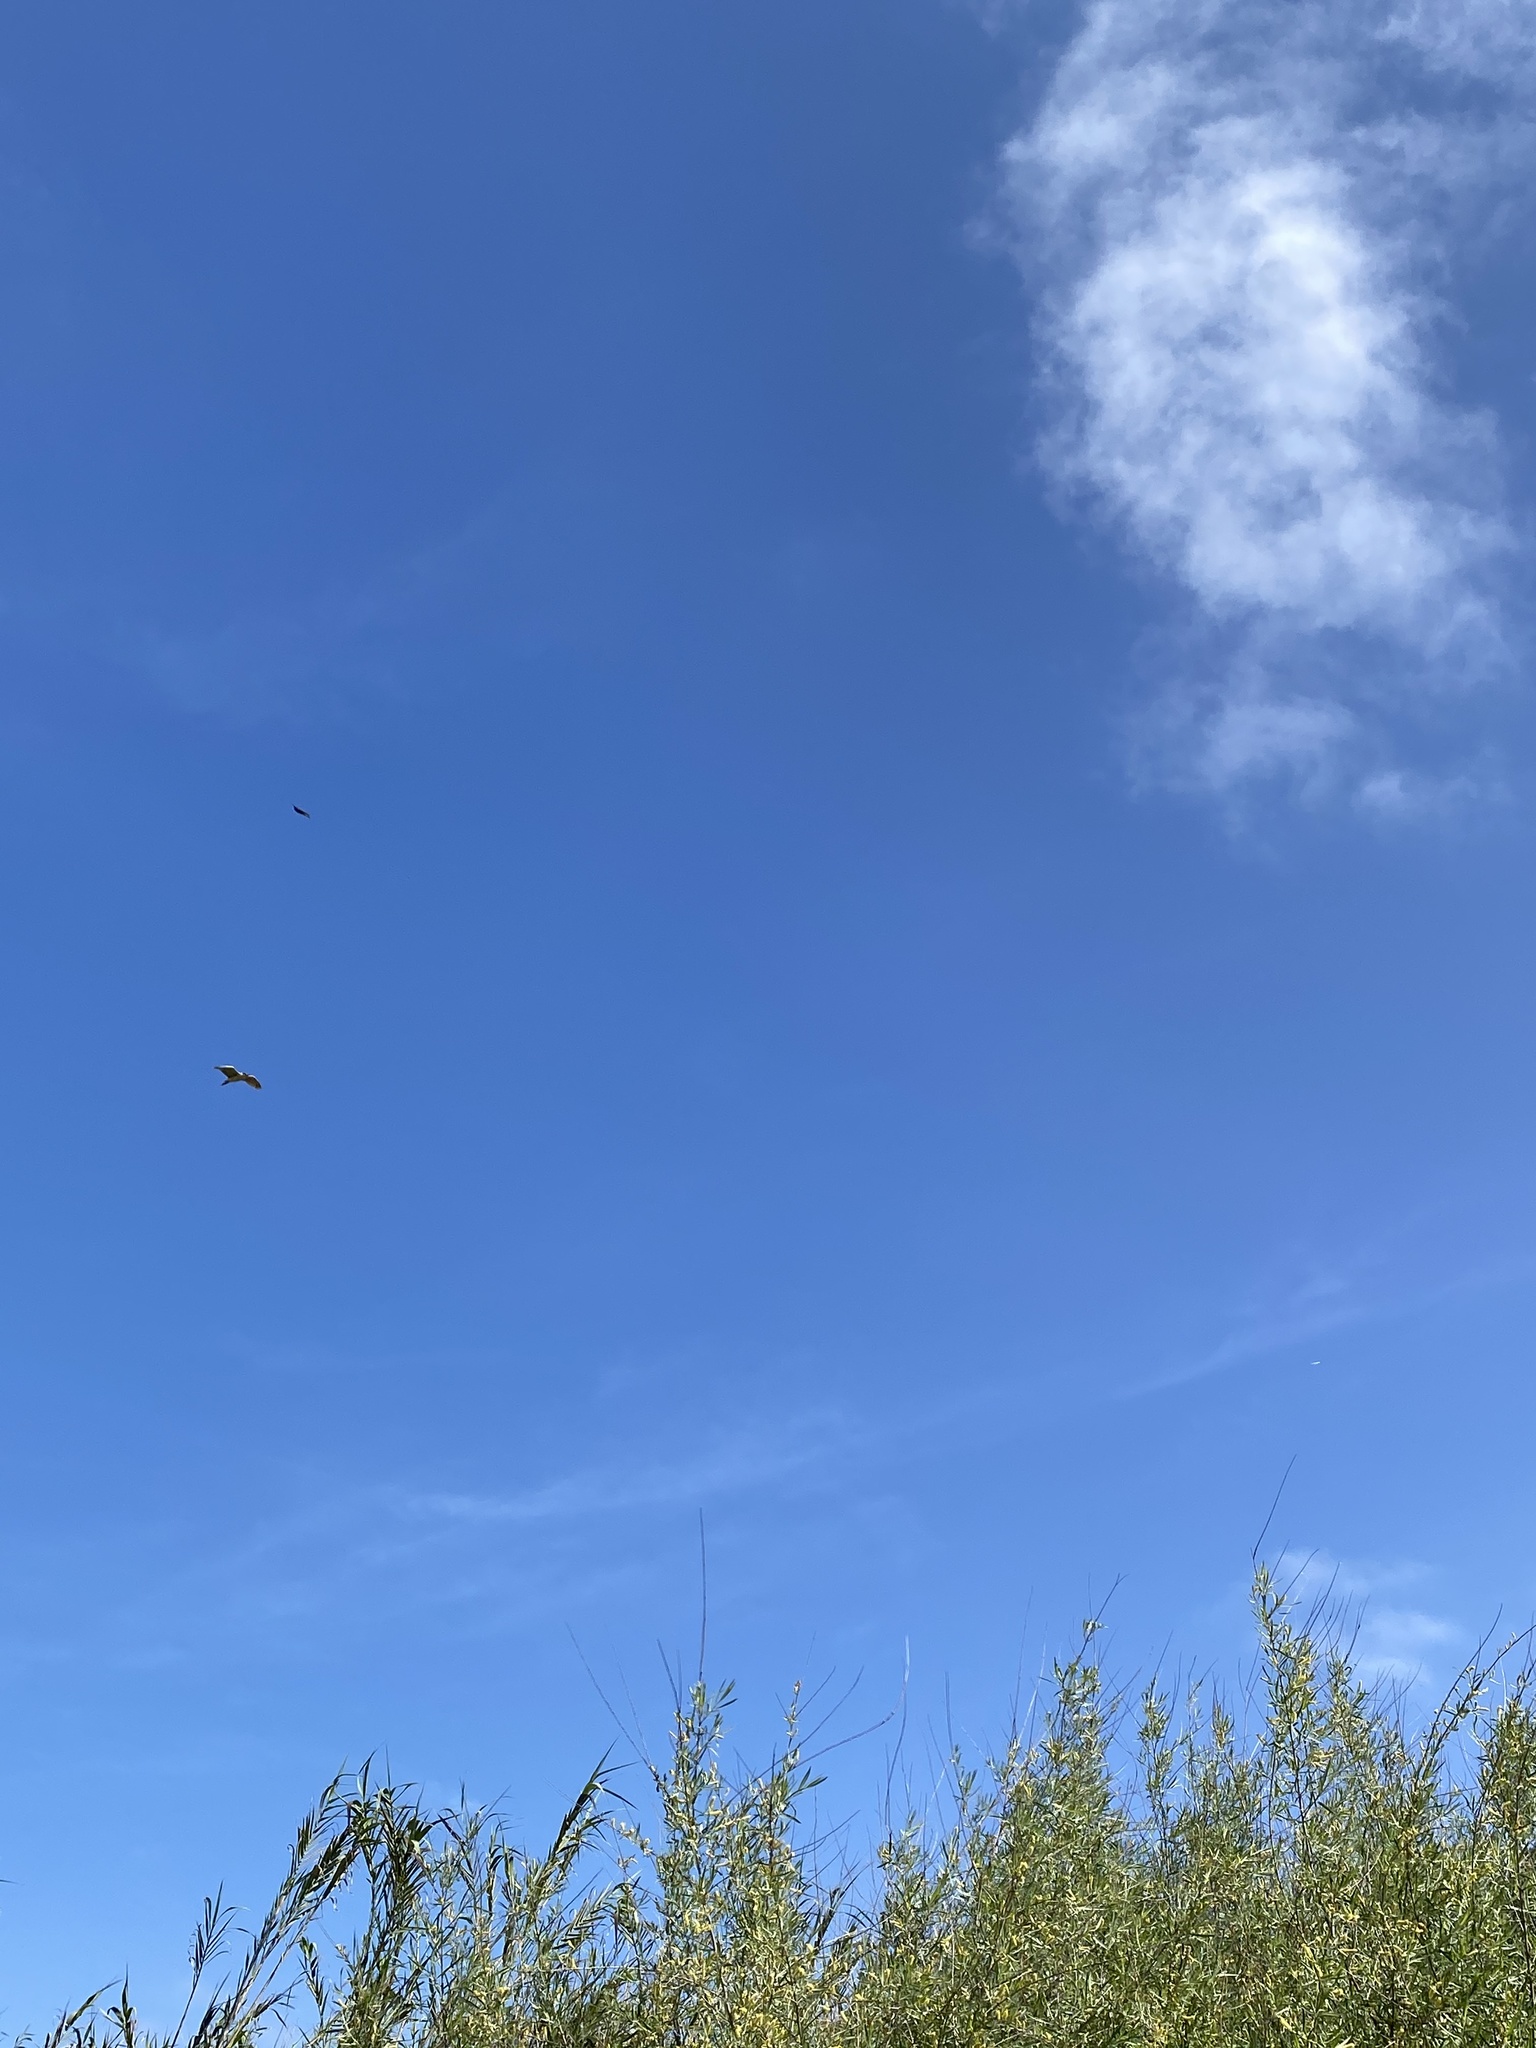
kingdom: Animalia
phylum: Chordata
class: Aves
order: Pelecaniformes
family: Ardeidae
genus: Nycticorax
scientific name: Nycticorax nycticorax
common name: Black-crowned night heron
